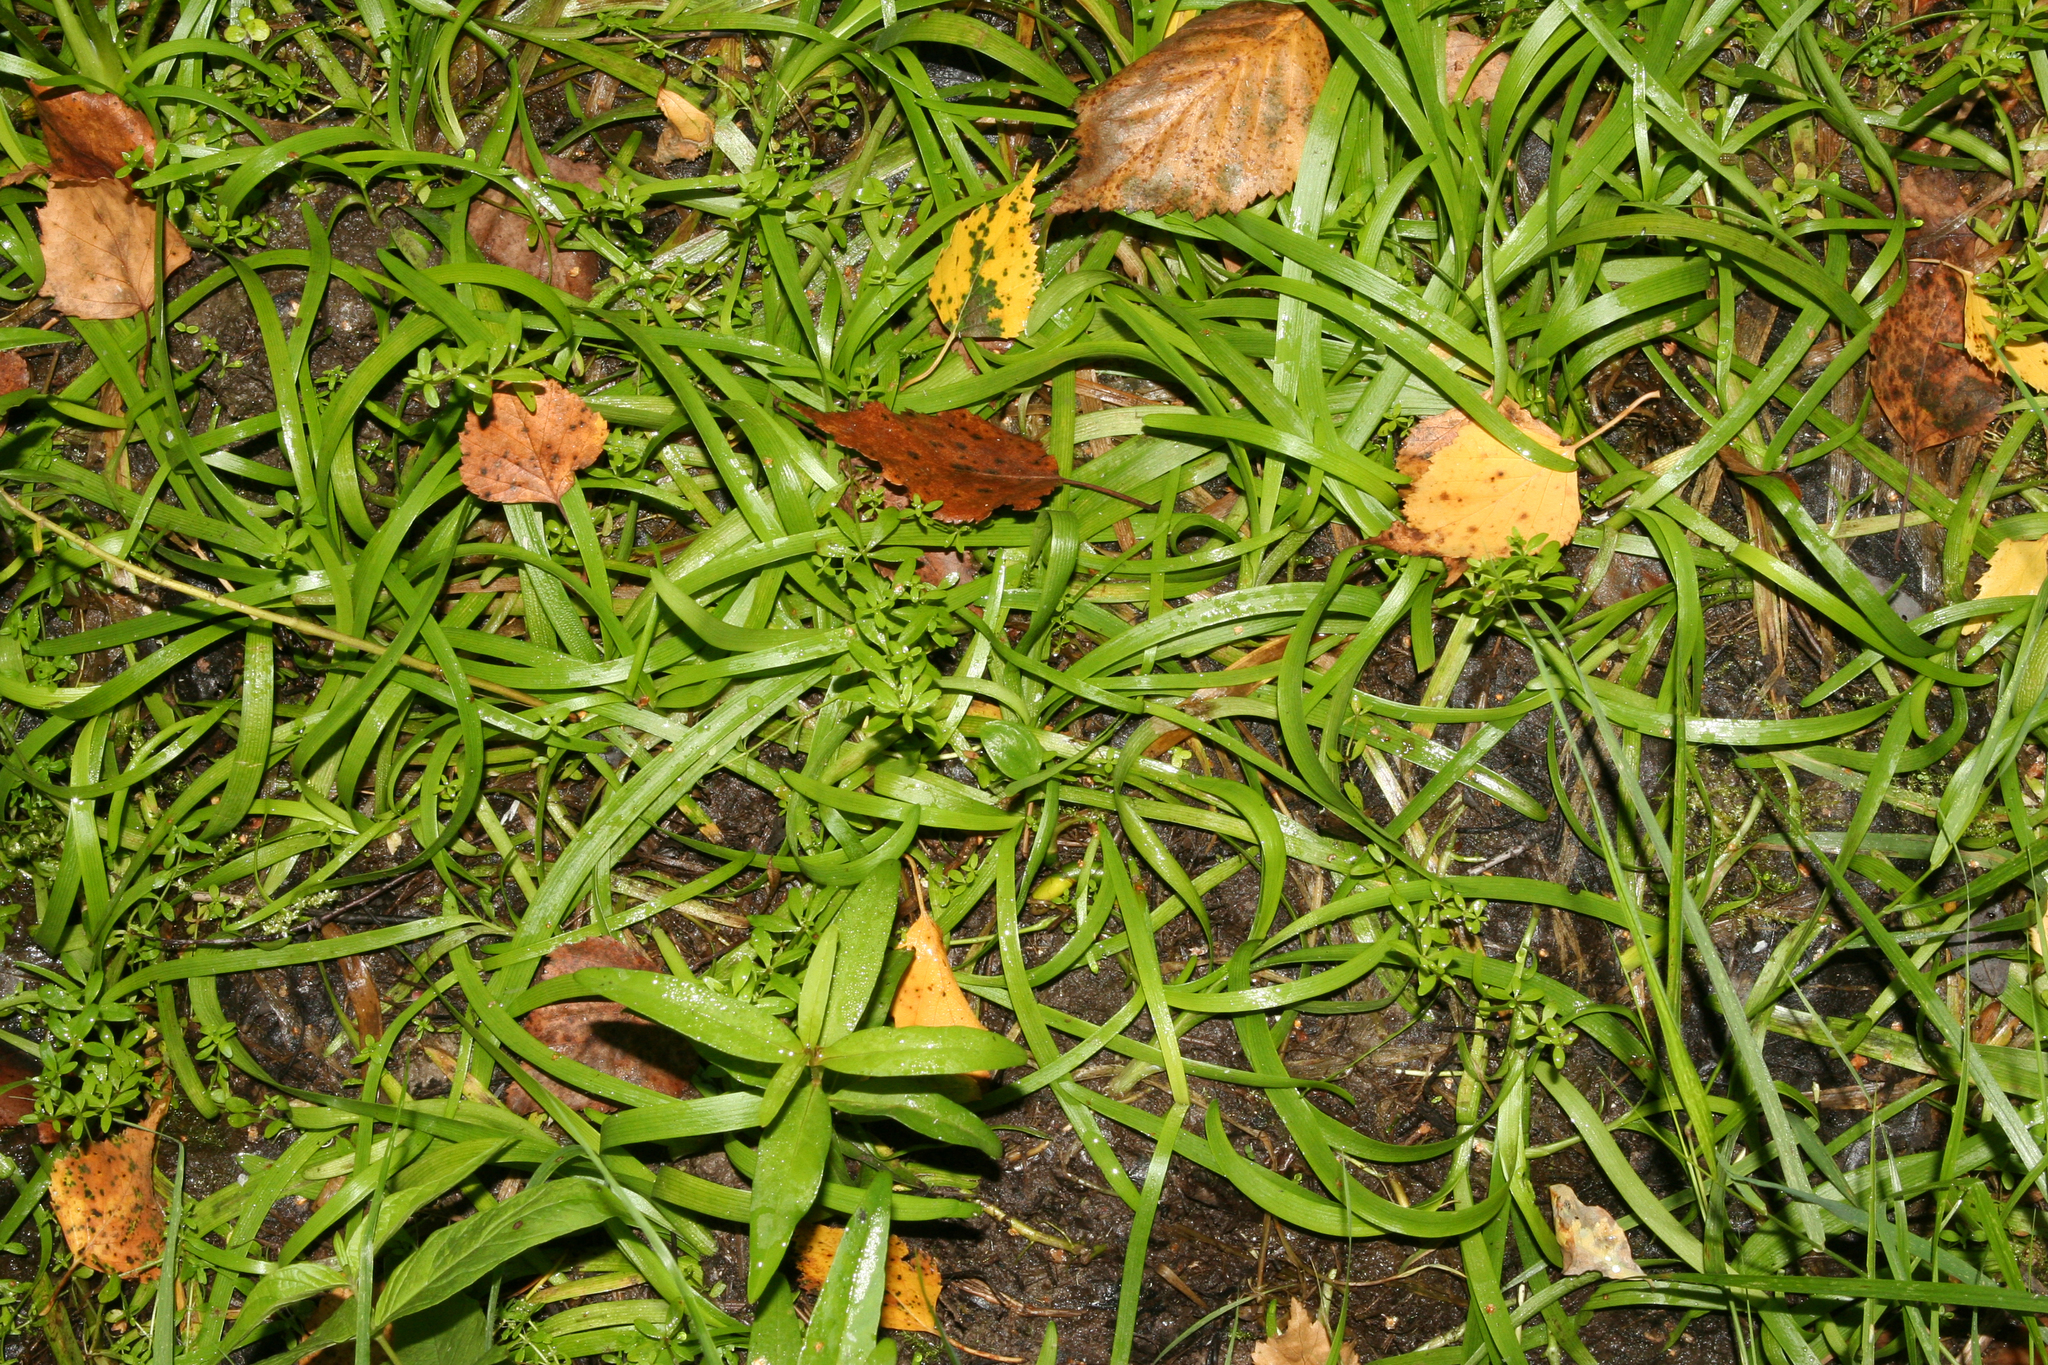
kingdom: Plantae
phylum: Tracheophyta
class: Liliopsida
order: Poales
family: Typhaceae
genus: Sparganium
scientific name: Sparganium natans
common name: Least bur-reed
